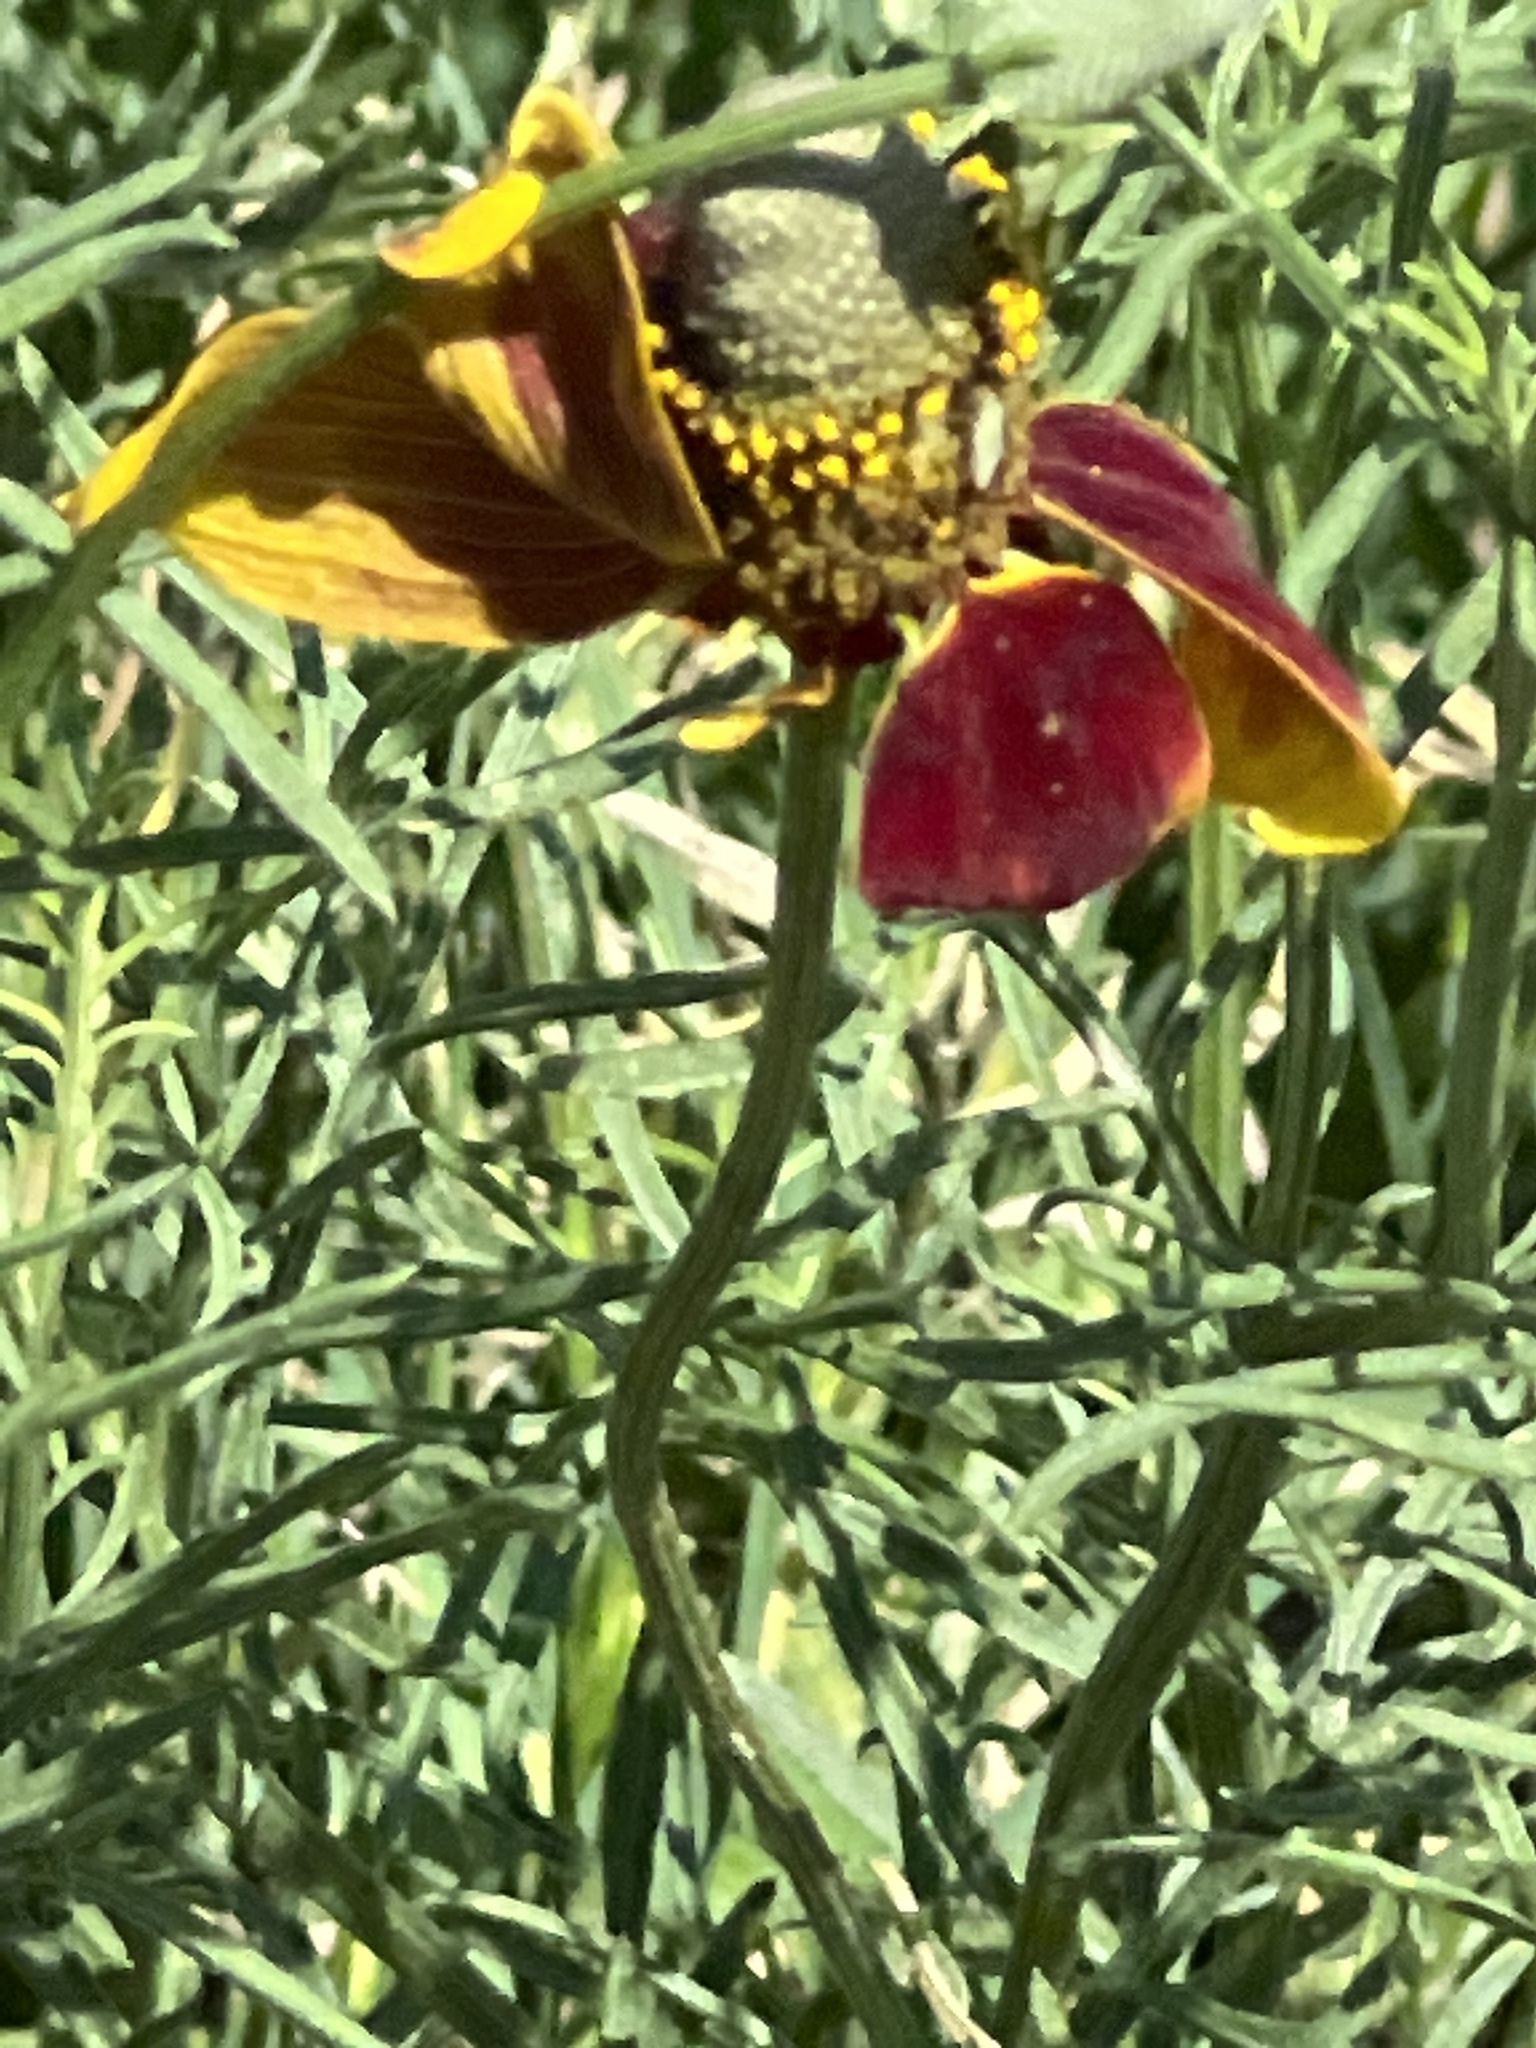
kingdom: Plantae
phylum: Tracheophyta
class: Magnoliopsida
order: Asterales
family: Asteraceae
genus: Ratibida
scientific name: Ratibida columnifera
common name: Prairie coneflower
